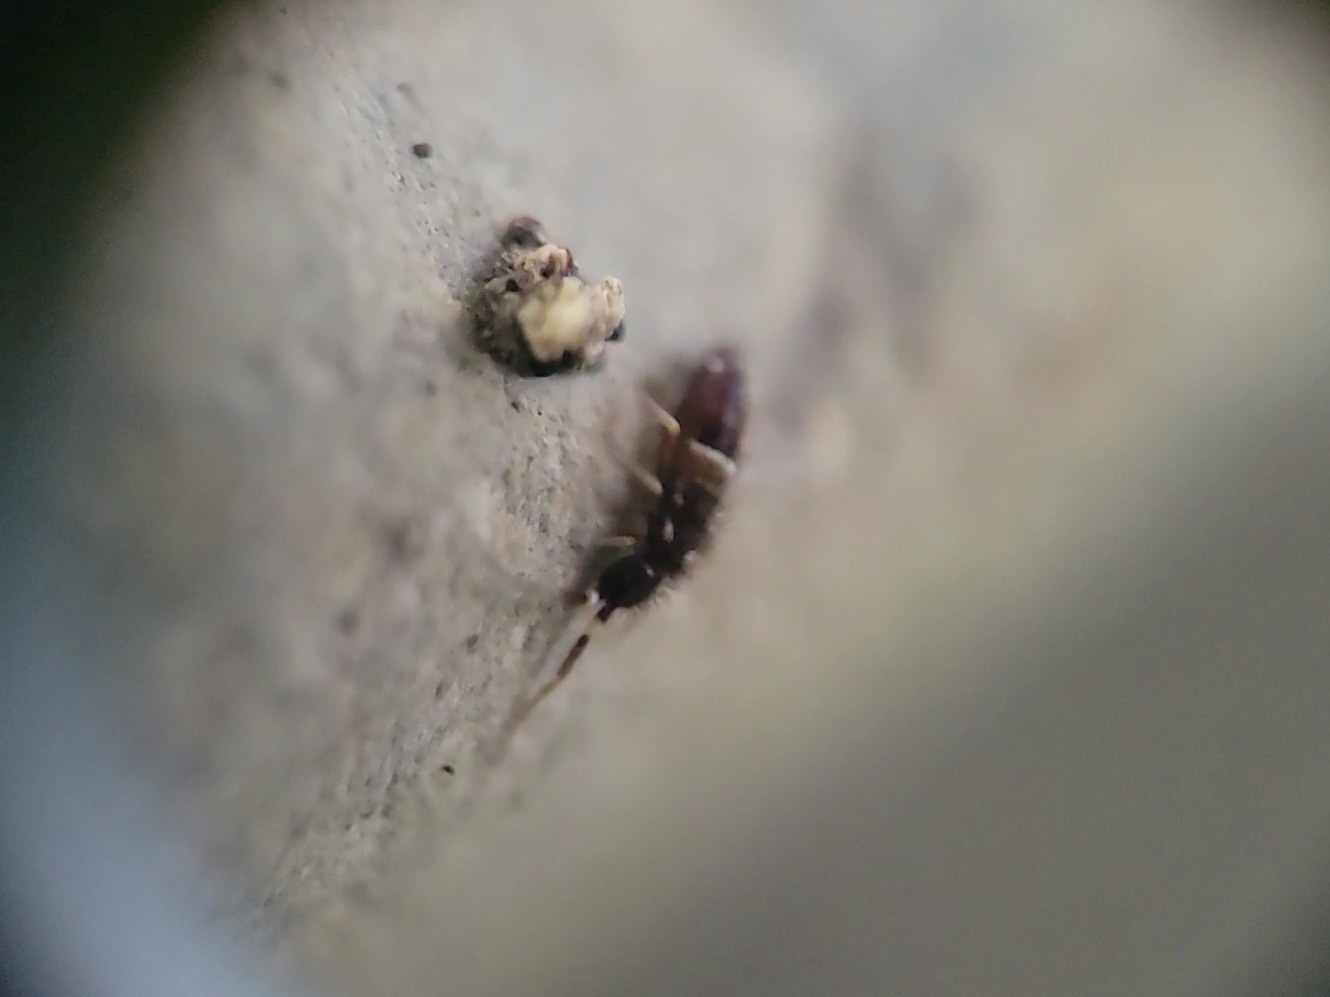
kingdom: Animalia
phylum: Arthropoda
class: Collembola
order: Entomobryomorpha
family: Orchesellidae
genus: Orchesella
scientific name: Orchesella cincta
